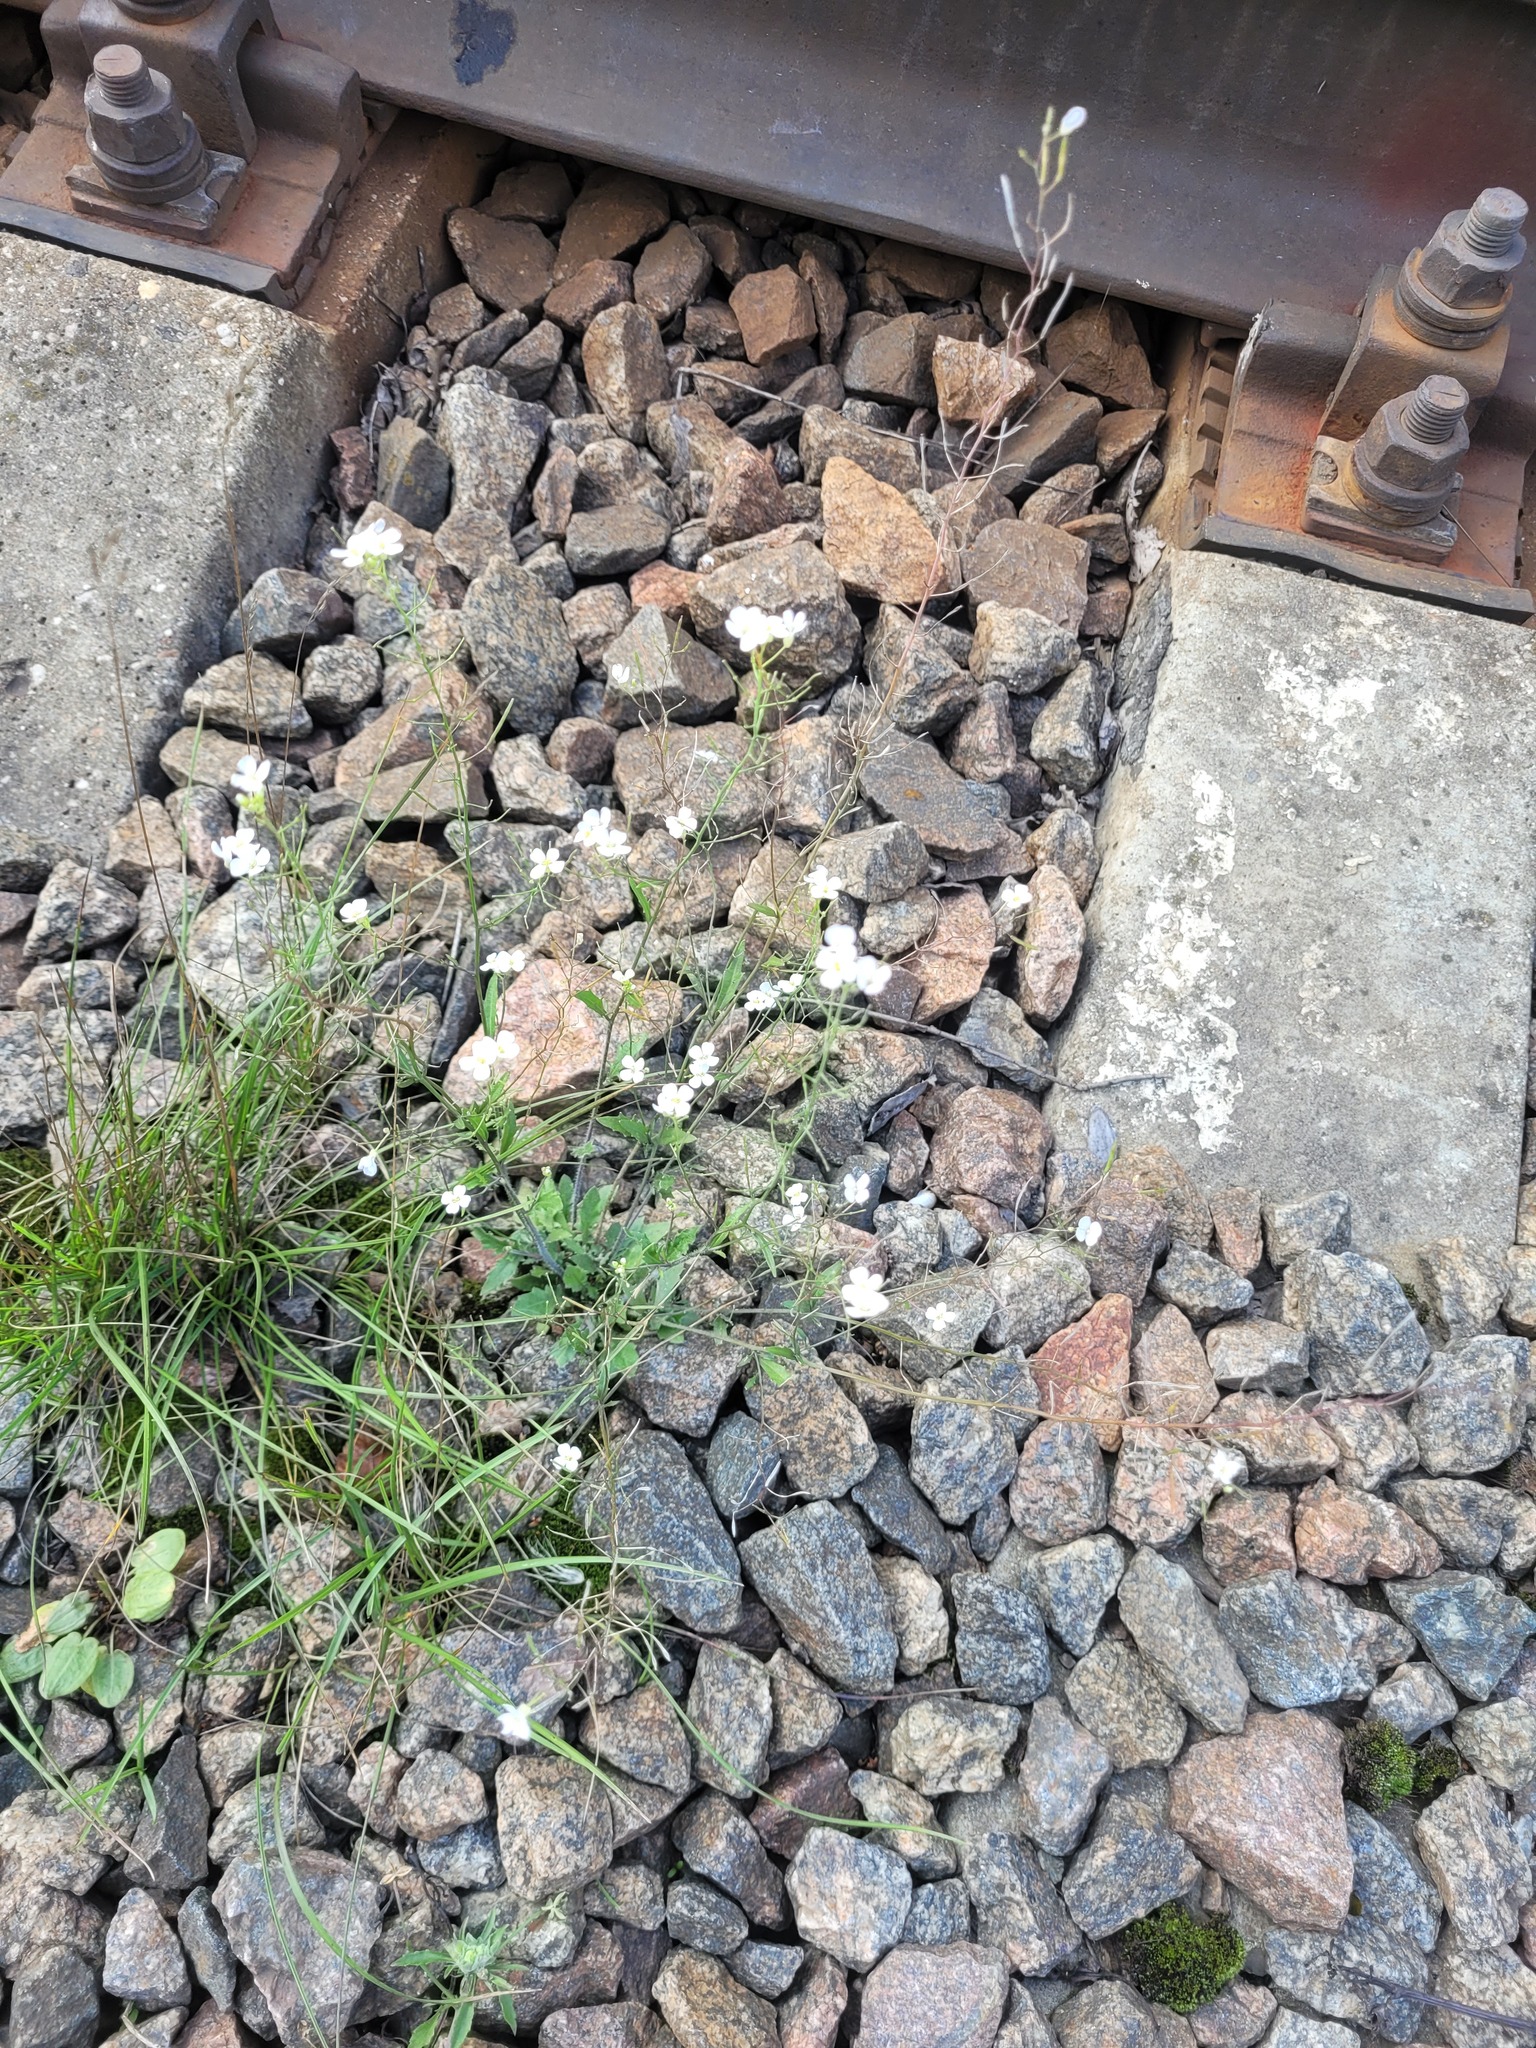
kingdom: Plantae
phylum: Tracheophyta
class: Magnoliopsida
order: Brassicales
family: Brassicaceae
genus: Arabidopsis
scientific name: Arabidopsis arenosa
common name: Sand rock-cress
